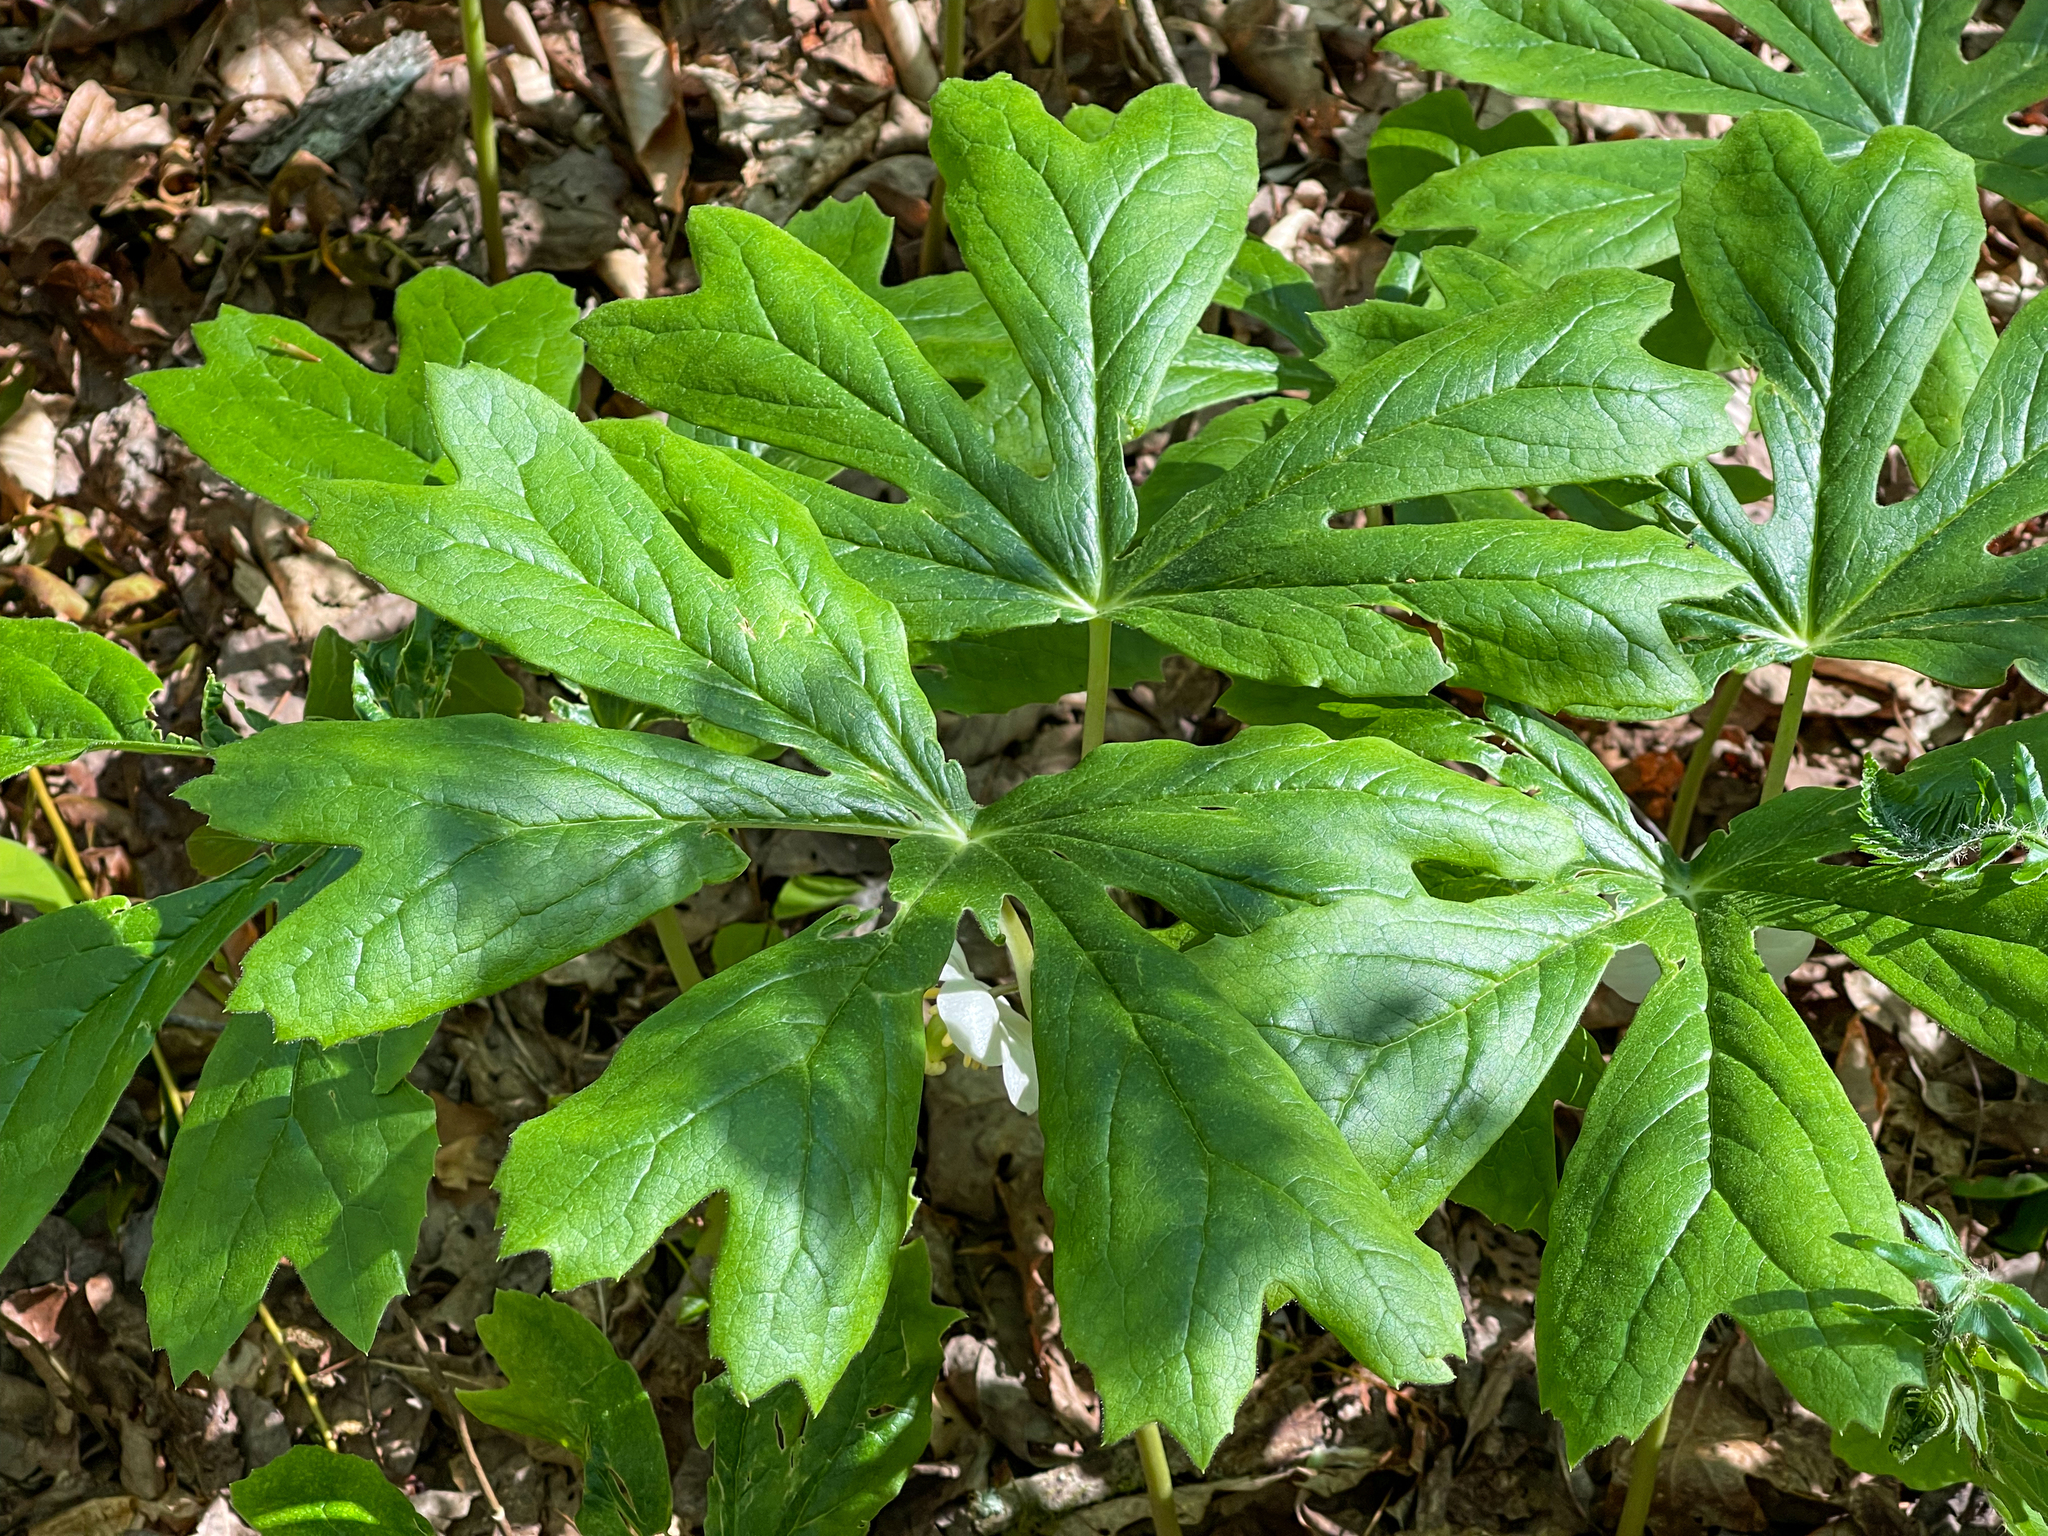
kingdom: Plantae
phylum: Tracheophyta
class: Magnoliopsida
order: Ranunculales
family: Berberidaceae
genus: Podophyllum
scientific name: Podophyllum peltatum
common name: Wild mandrake
